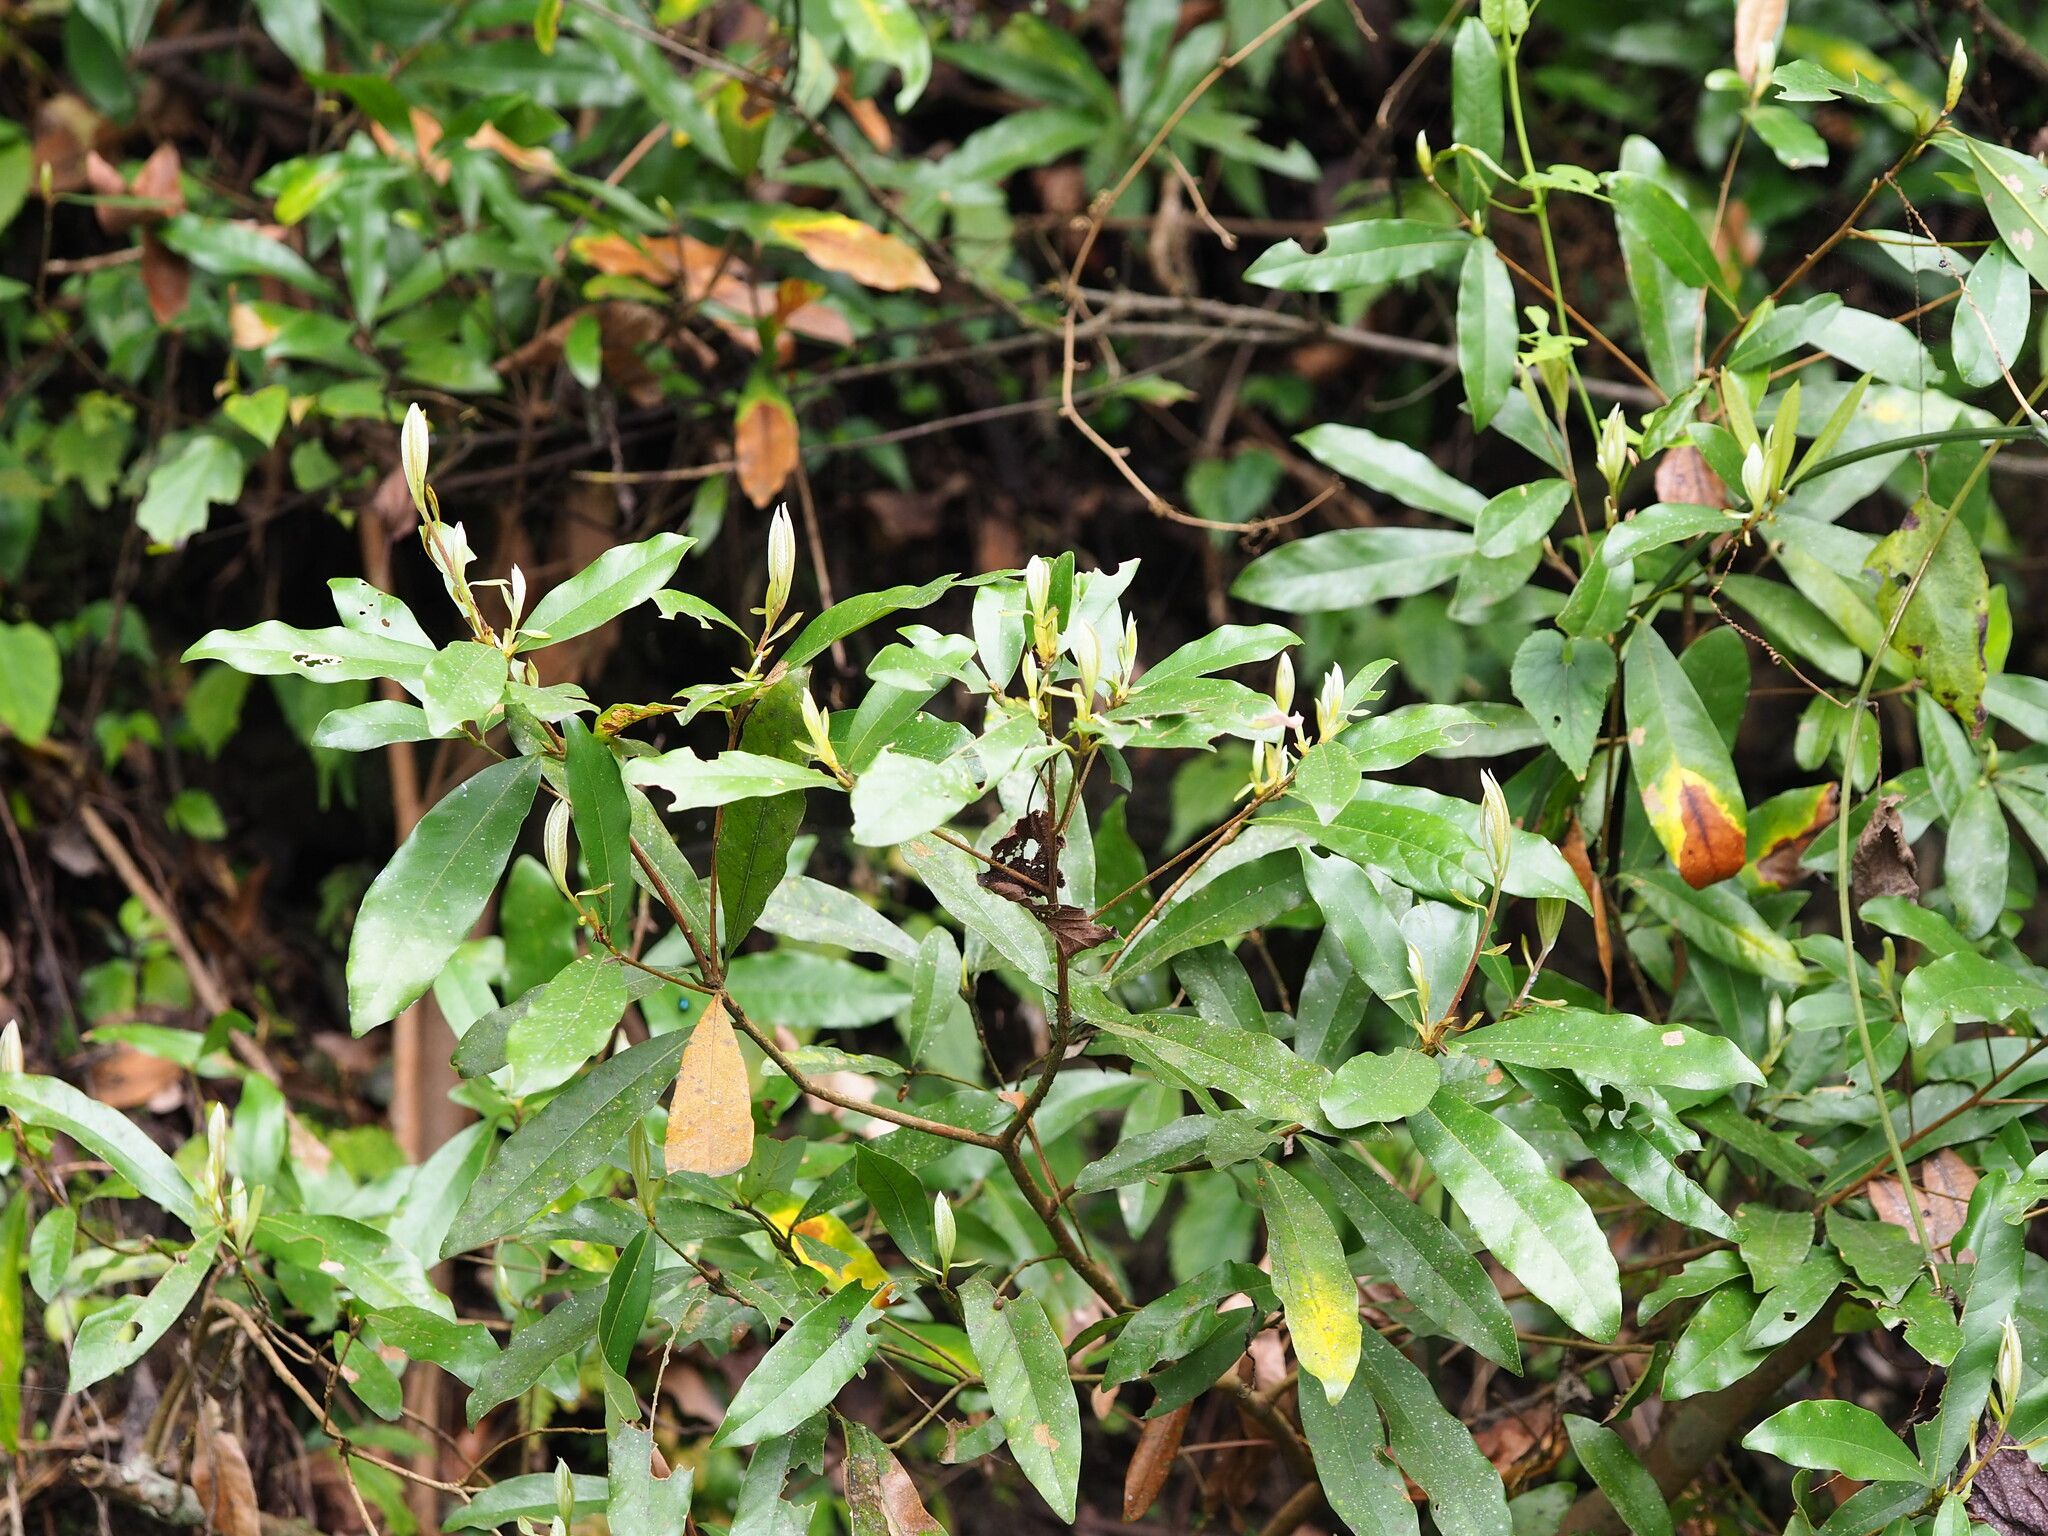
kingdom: Plantae
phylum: Tracheophyta
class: Magnoliopsida
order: Laurales
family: Lauraceae
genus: Litsea
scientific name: Litsea hypophaea
